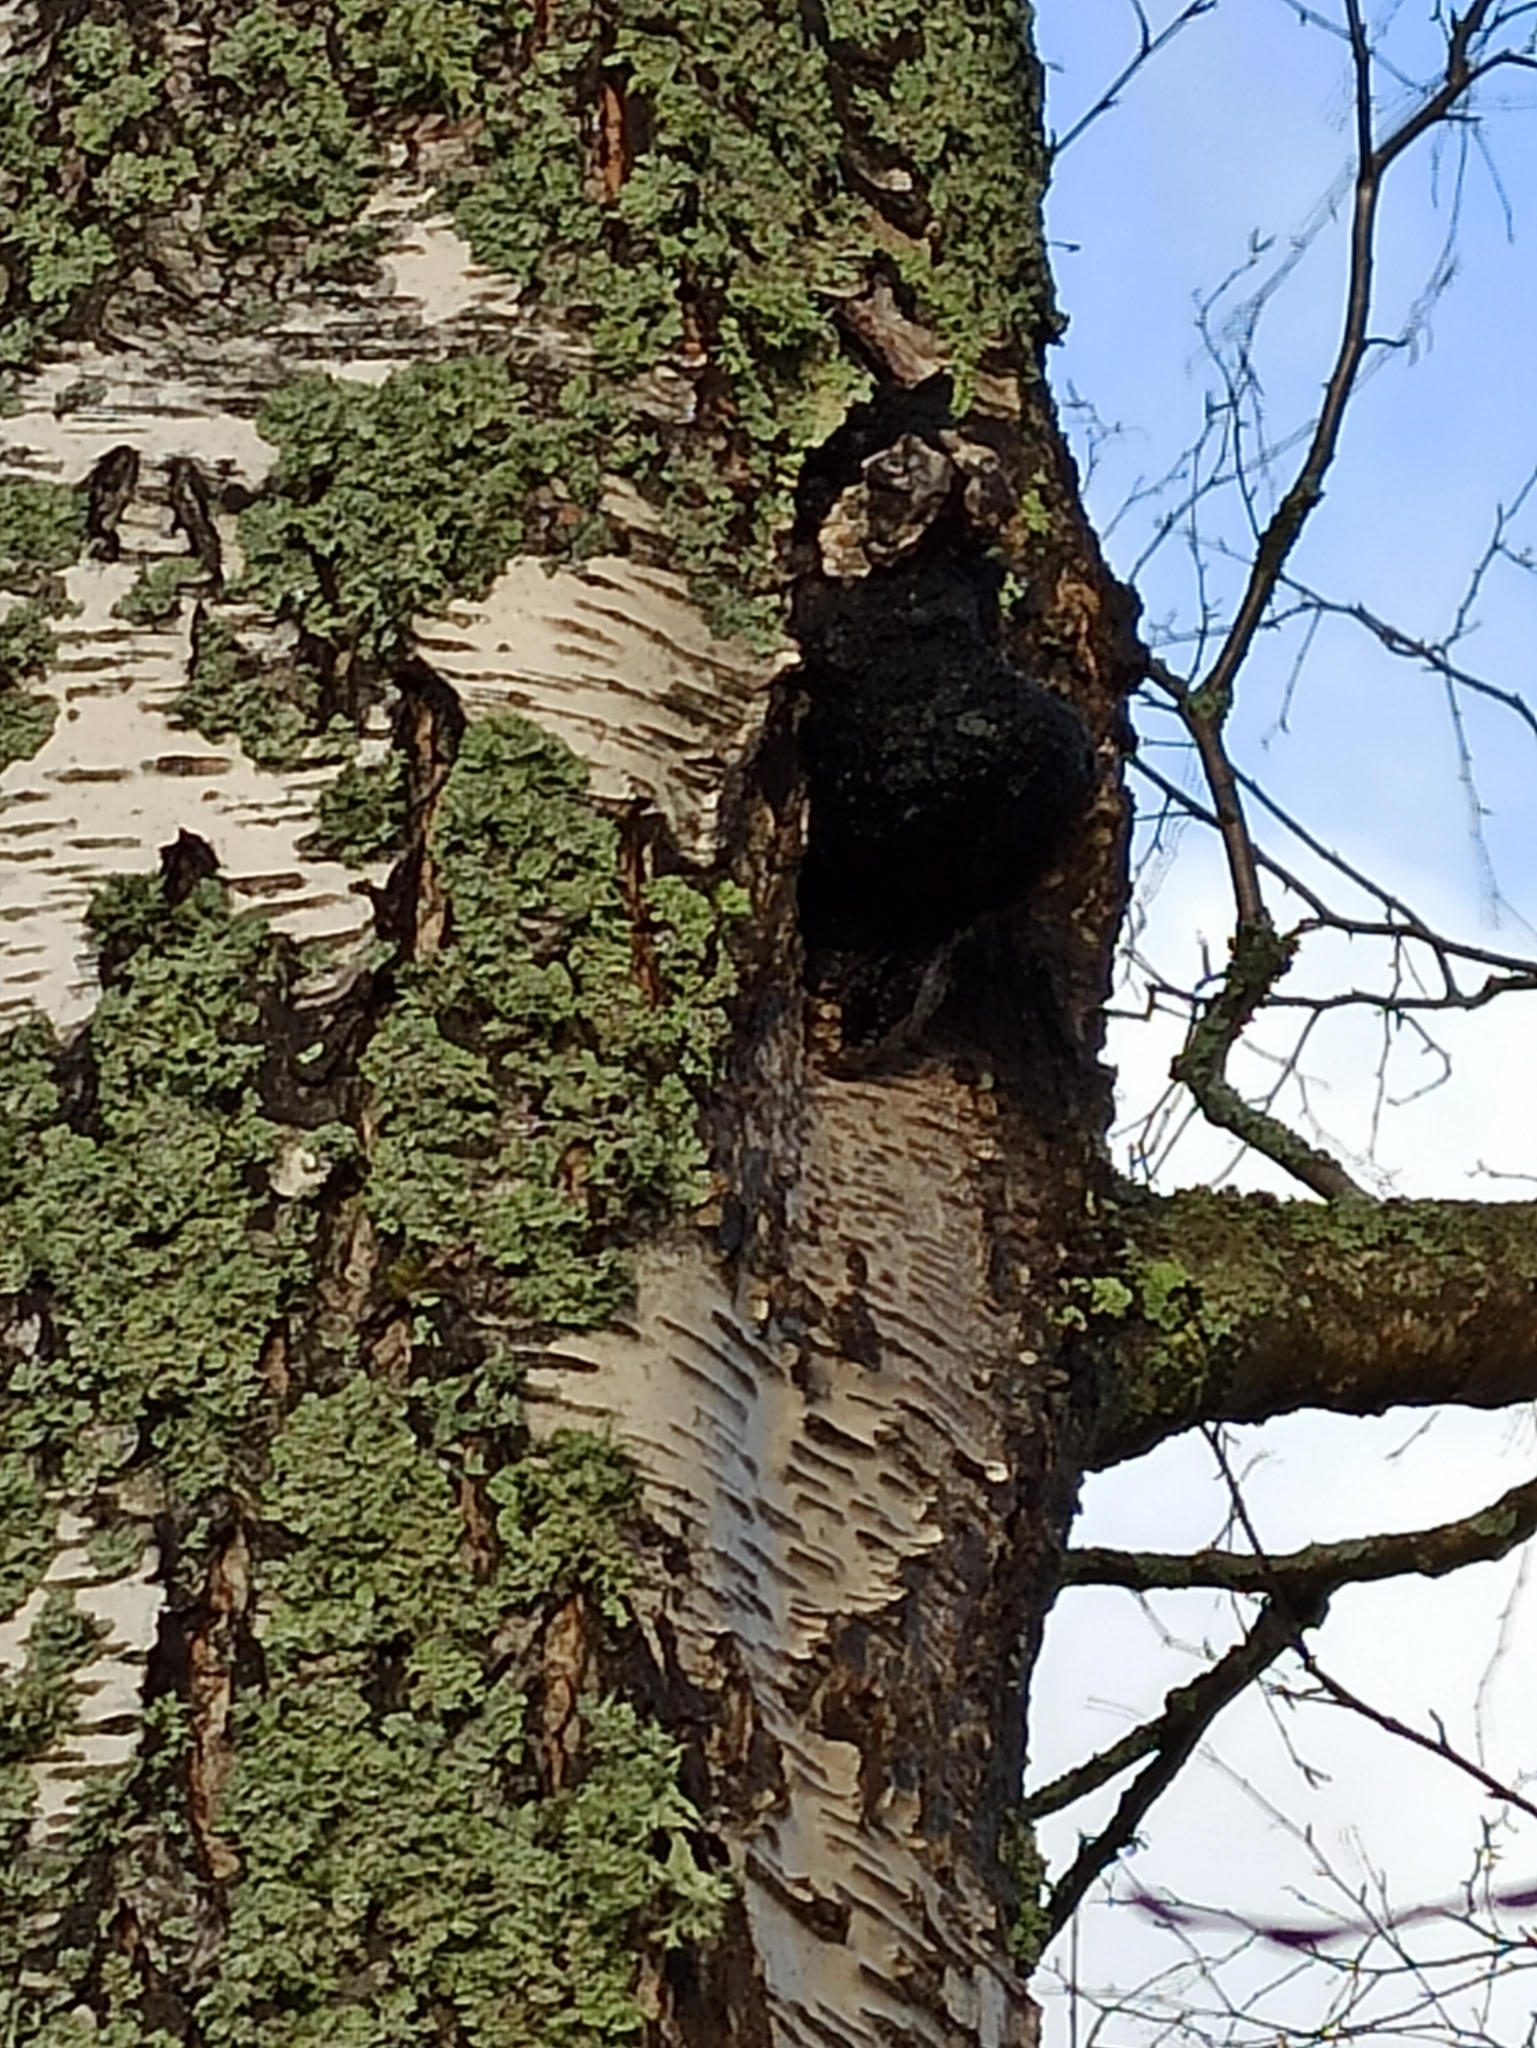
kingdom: Fungi
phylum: Basidiomycota
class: Agaricomycetes
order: Hymenochaetales
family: Hymenochaetaceae
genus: Inonotus
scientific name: Inonotus obliquus
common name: Chaga
